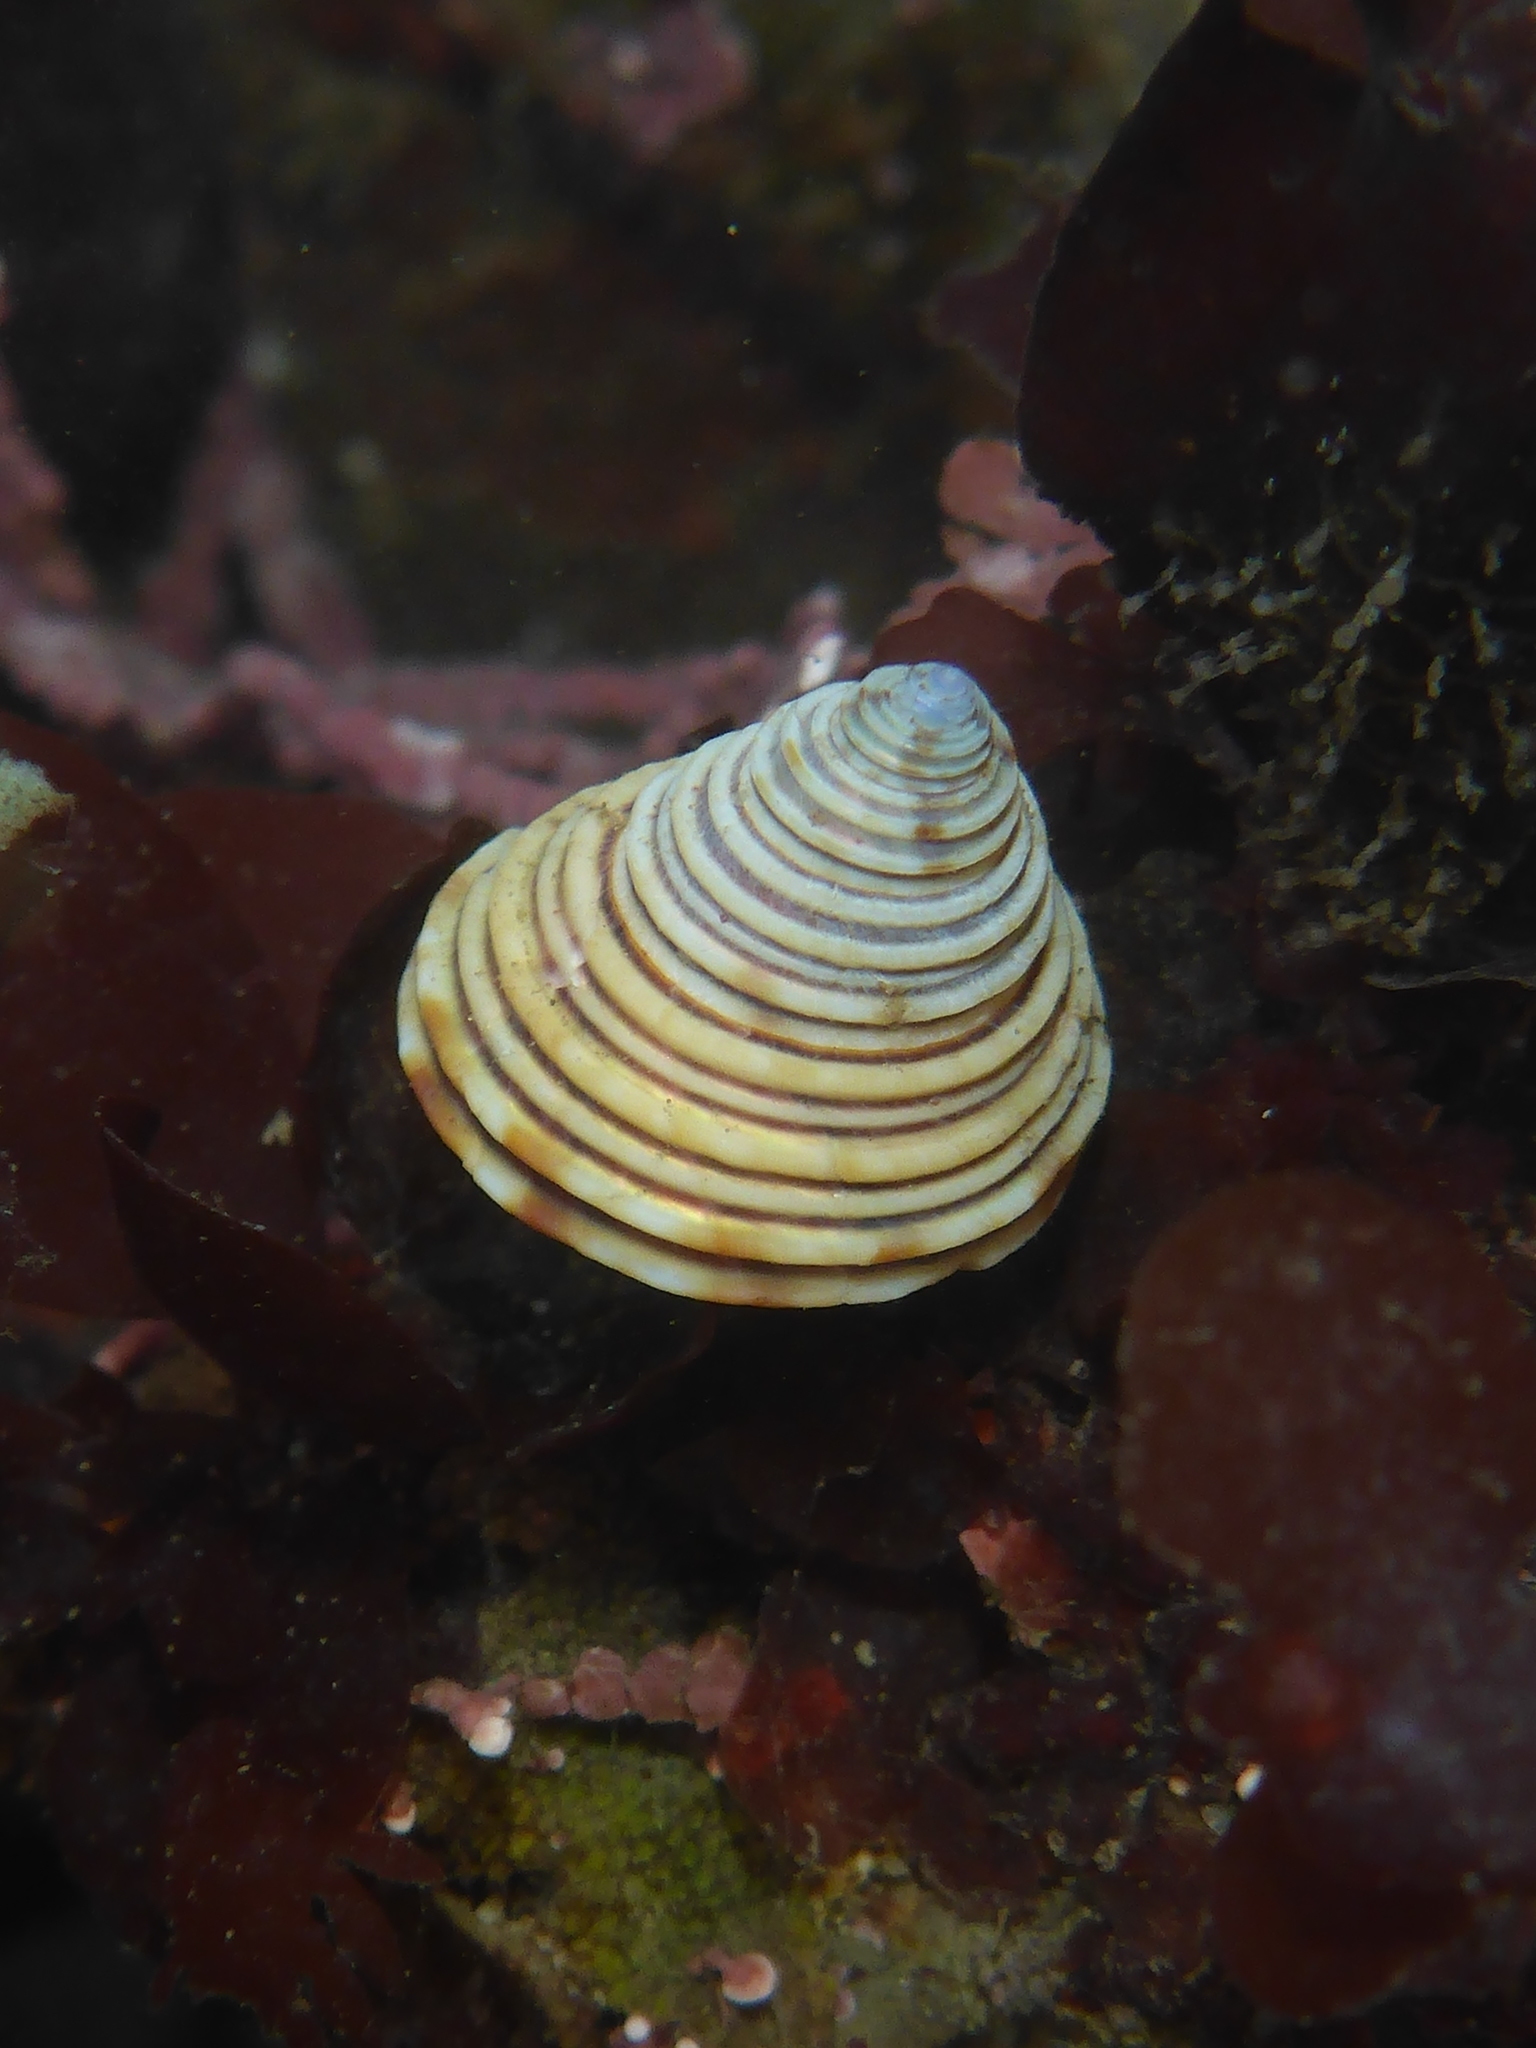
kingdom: Animalia
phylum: Mollusca
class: Gastropoda
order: Trochida
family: Calliostomatidae
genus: Calliostoma
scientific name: Calliostoma canaliculatum
